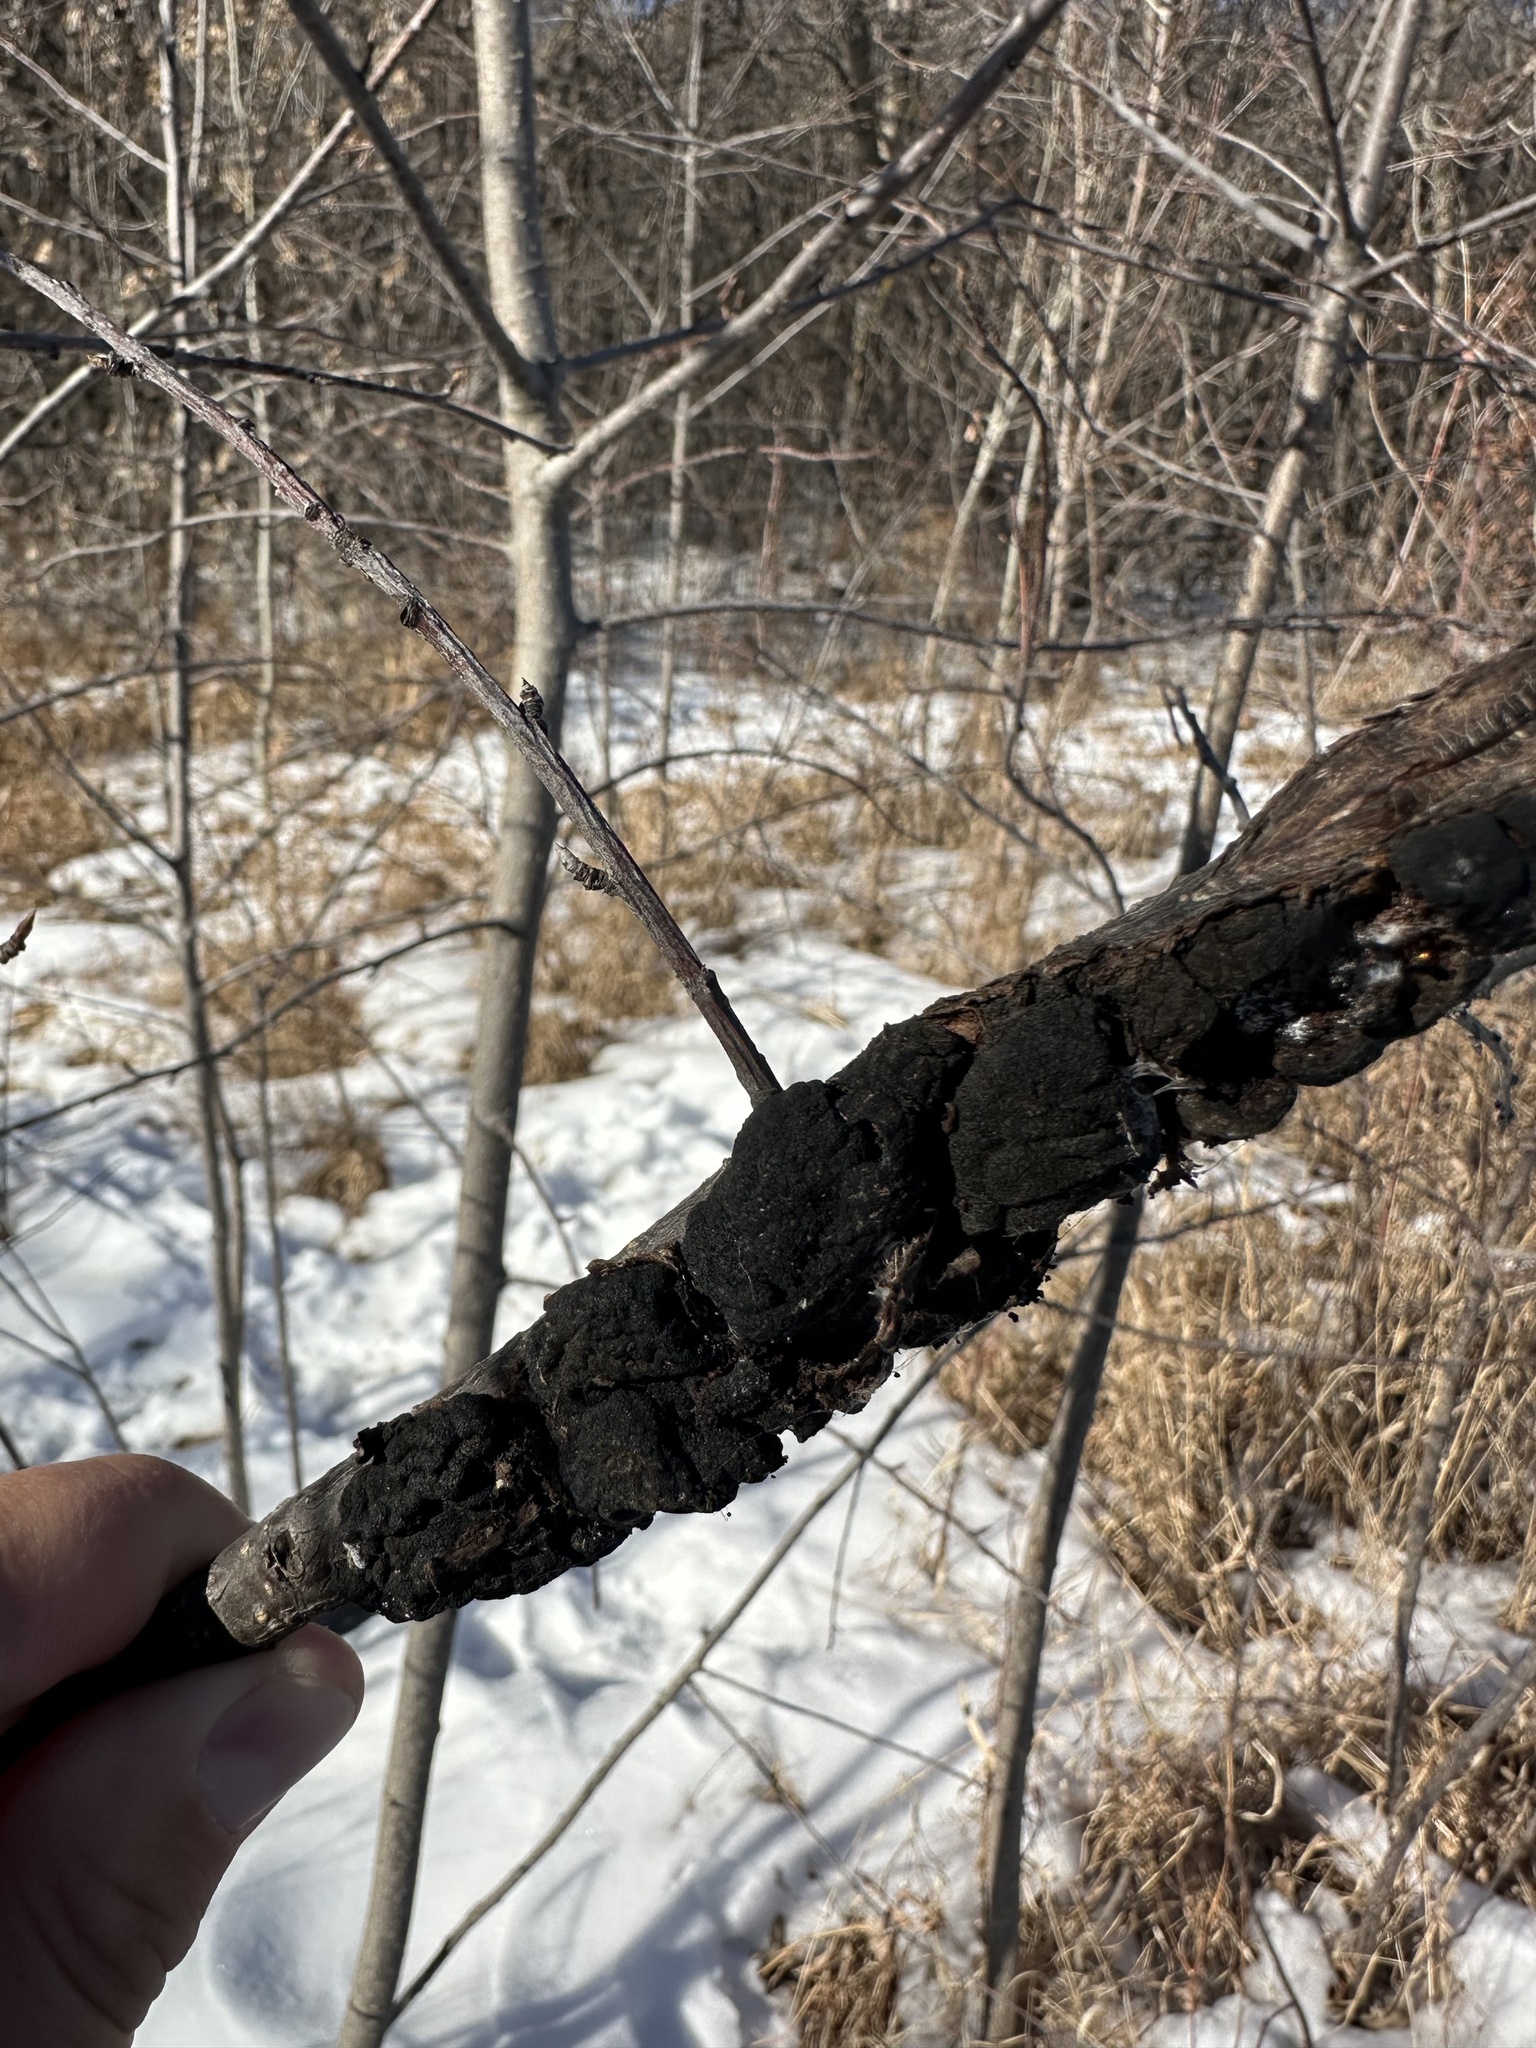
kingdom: Fungi
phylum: Ascomycota
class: Dothideomycetes
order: Venturiales
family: Venturiaceae
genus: Apiosporina
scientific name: Apiosporina morbosa
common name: Black knot
